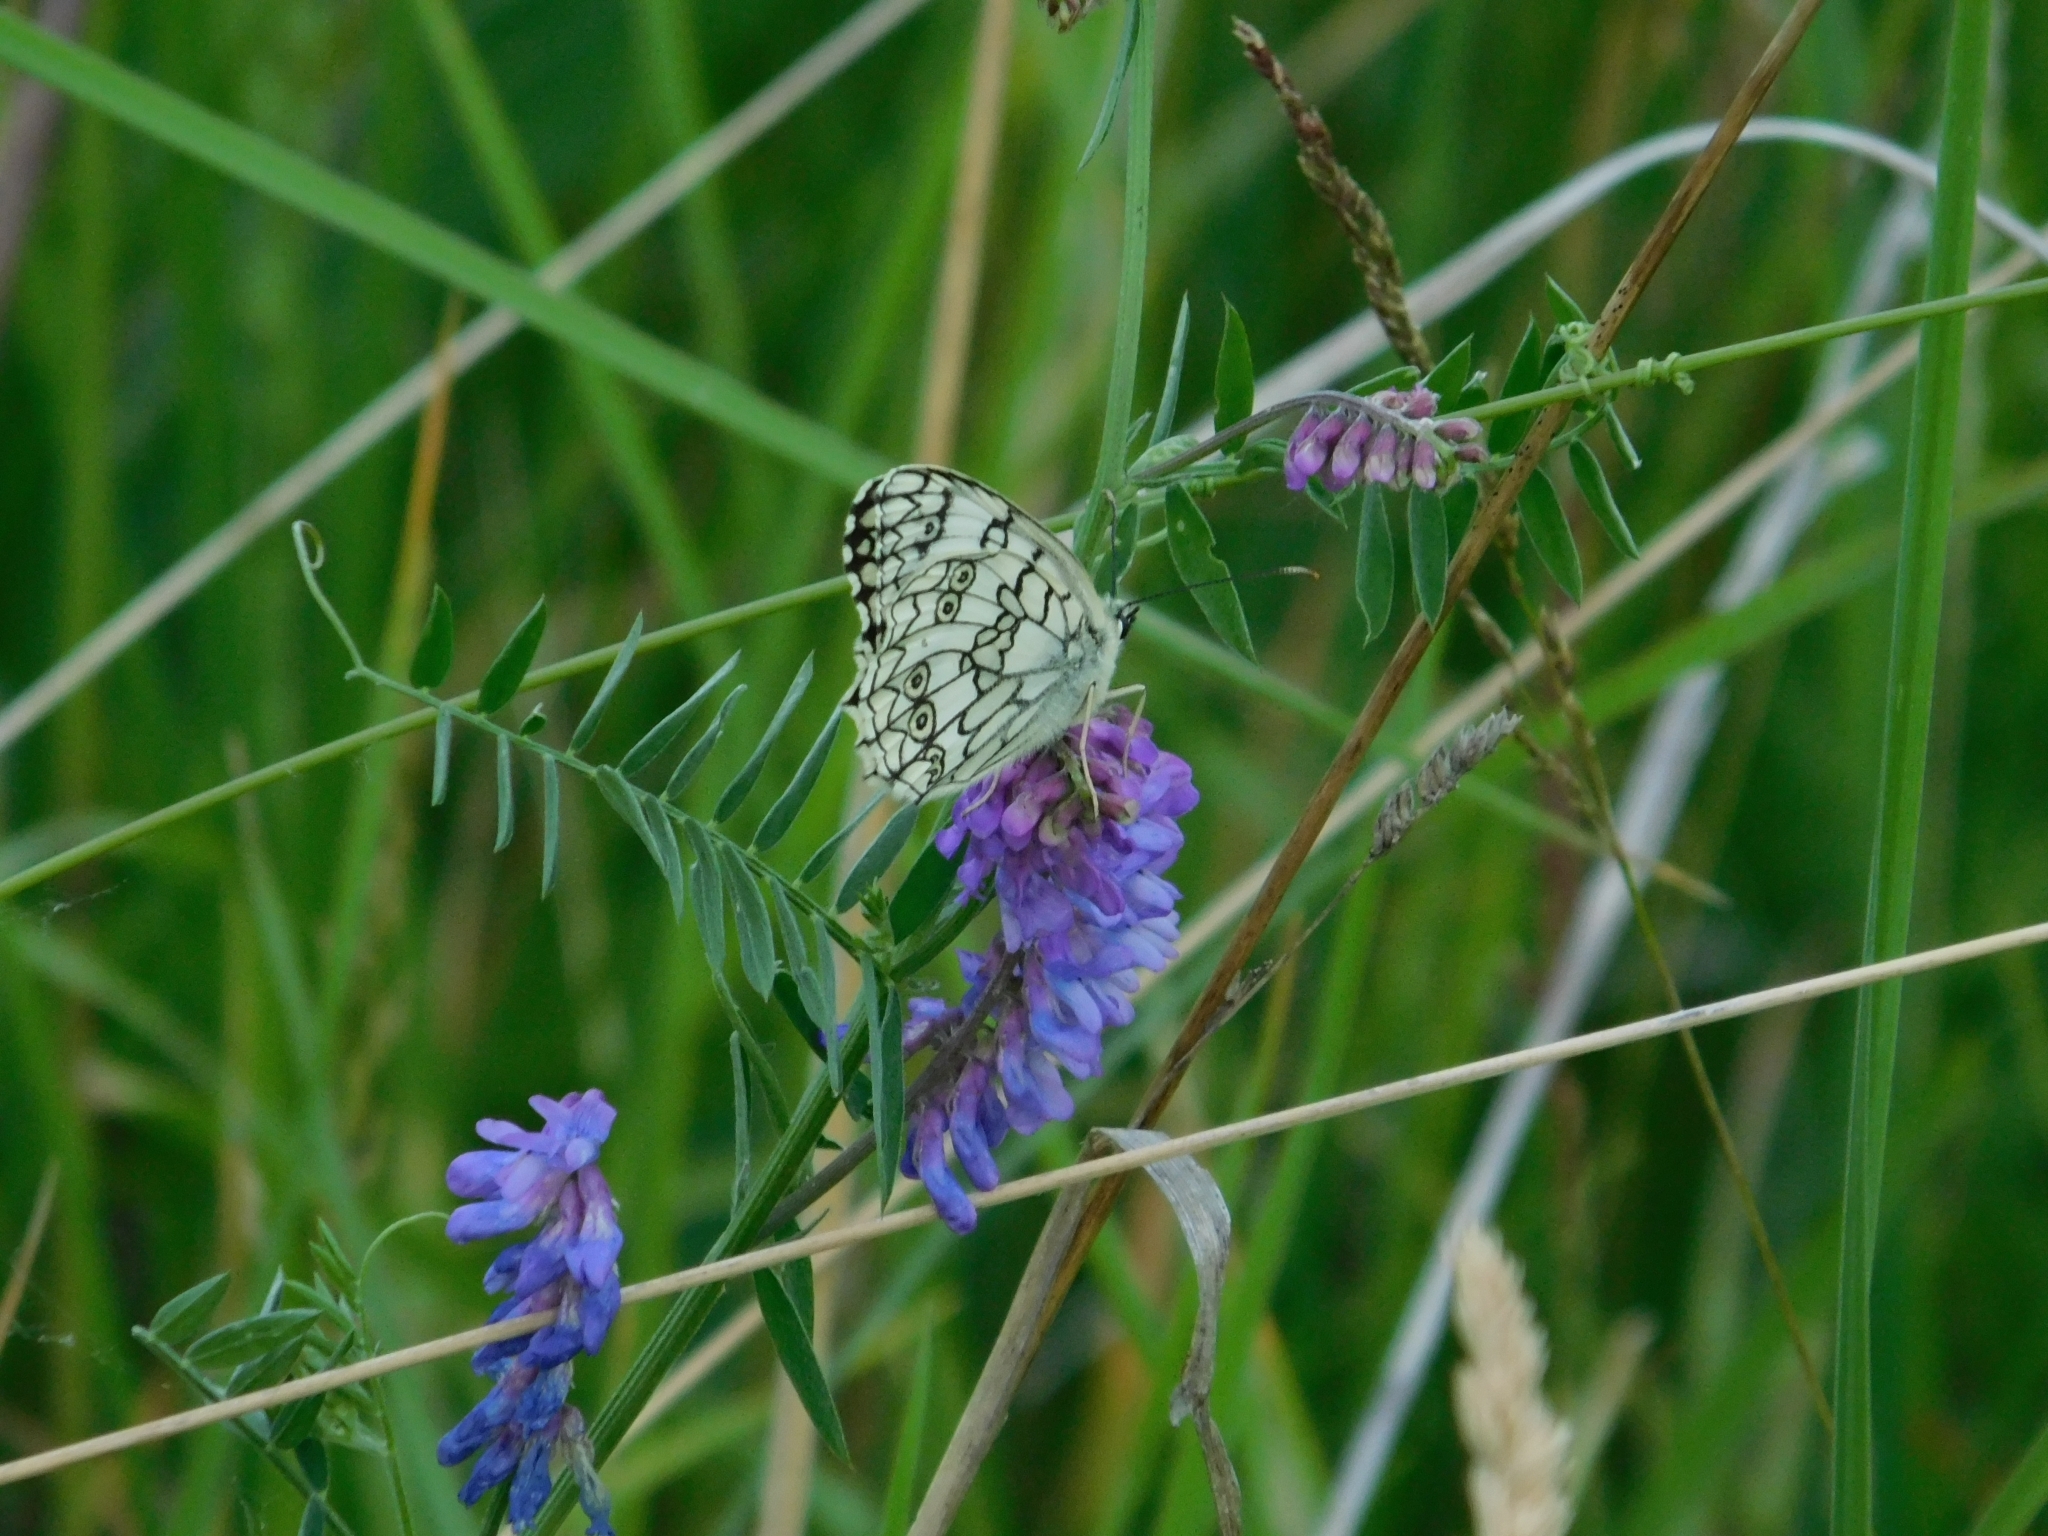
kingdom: Animalia
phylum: Arthropoda
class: Insecta
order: Lepidoptera
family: Nymphalidae
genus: Melanargia
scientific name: Melanargia japygia
